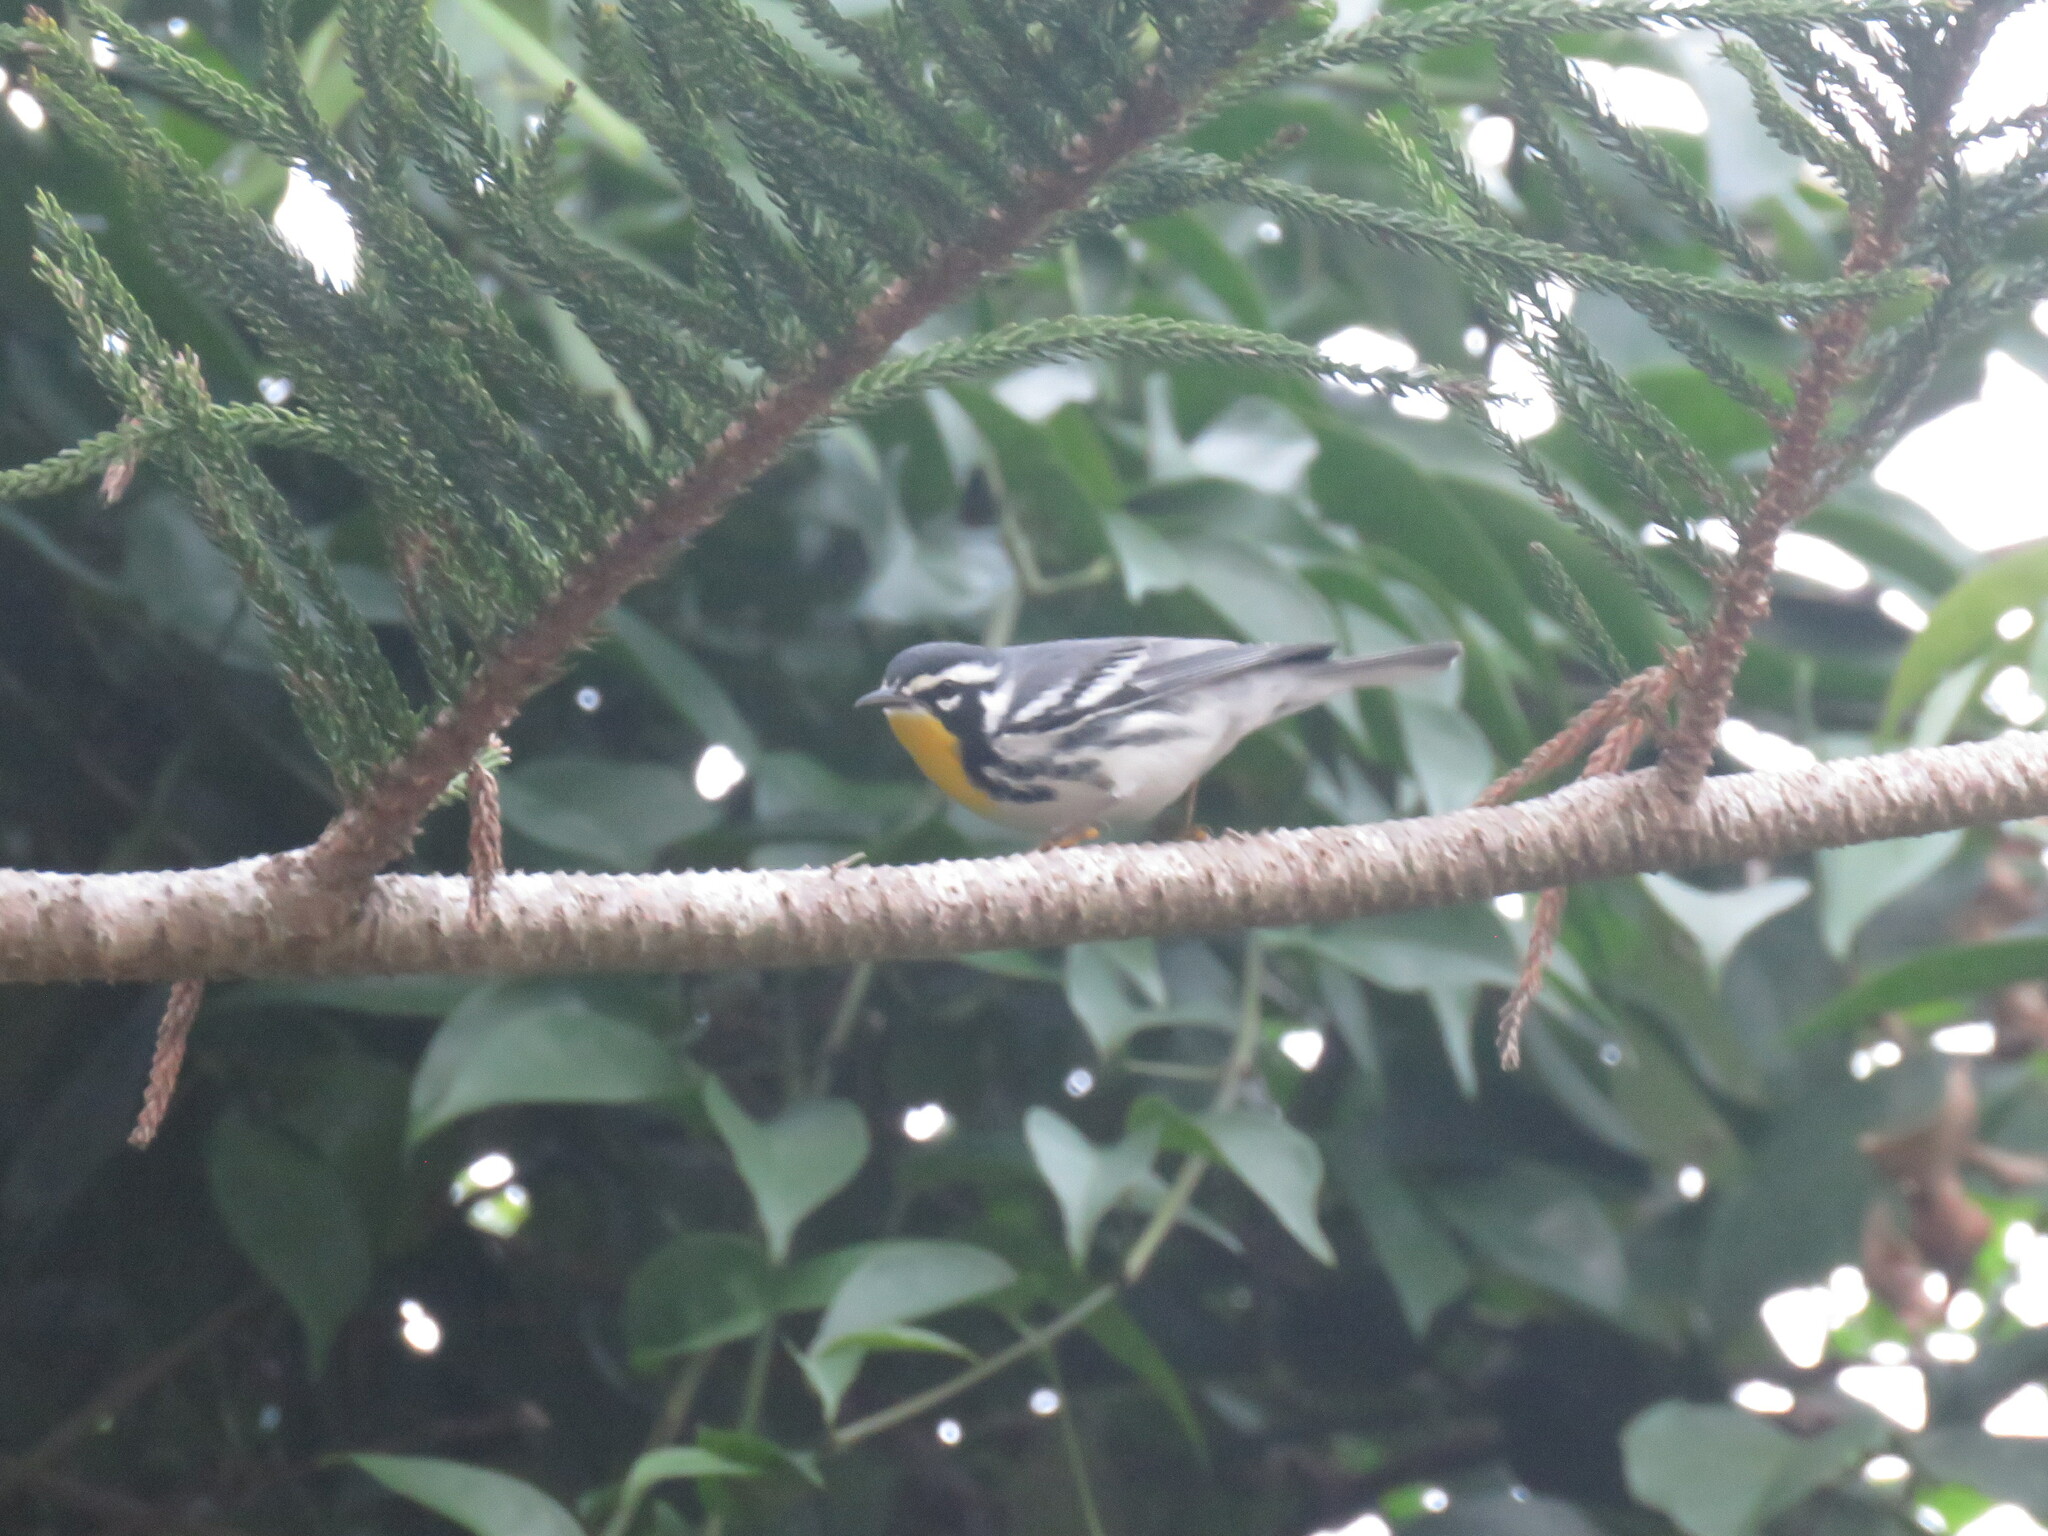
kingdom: Animalia
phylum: Chordata
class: Aves
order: Passeriformes
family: Parulidae
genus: Setophaga
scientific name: Setophaga dominica
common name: Yellow-throated warbler
